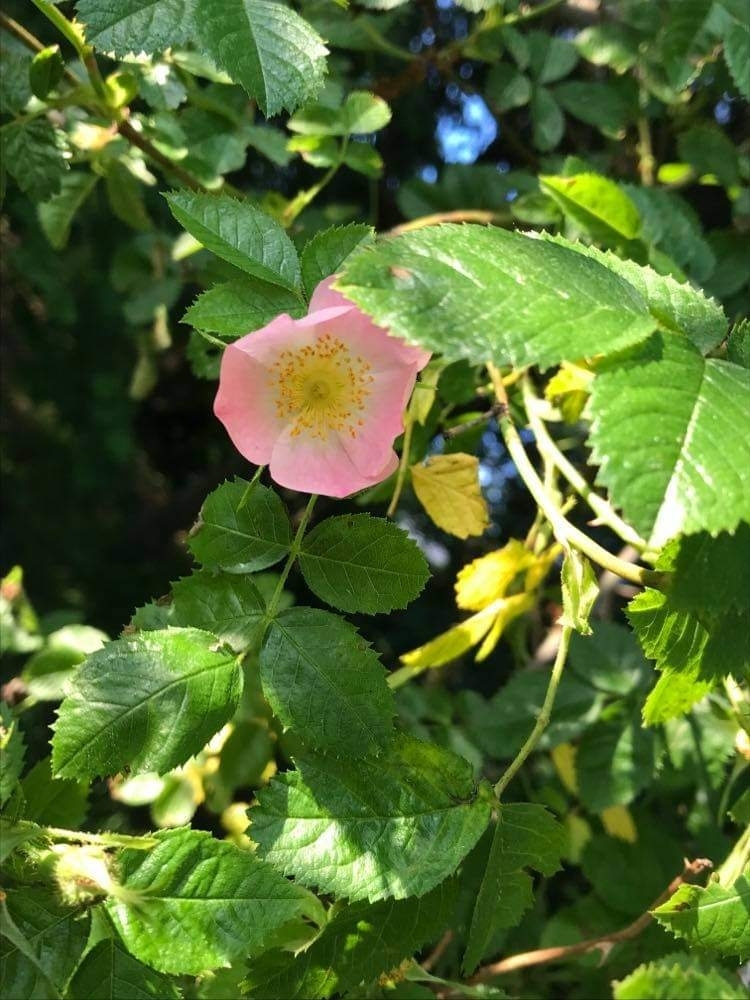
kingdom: Plantae
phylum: Tracheophyta
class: Magnoliopsida
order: Rosales
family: Rosaceae
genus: Rosa
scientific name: Rosa rubiginosa
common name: Sweet-briar
